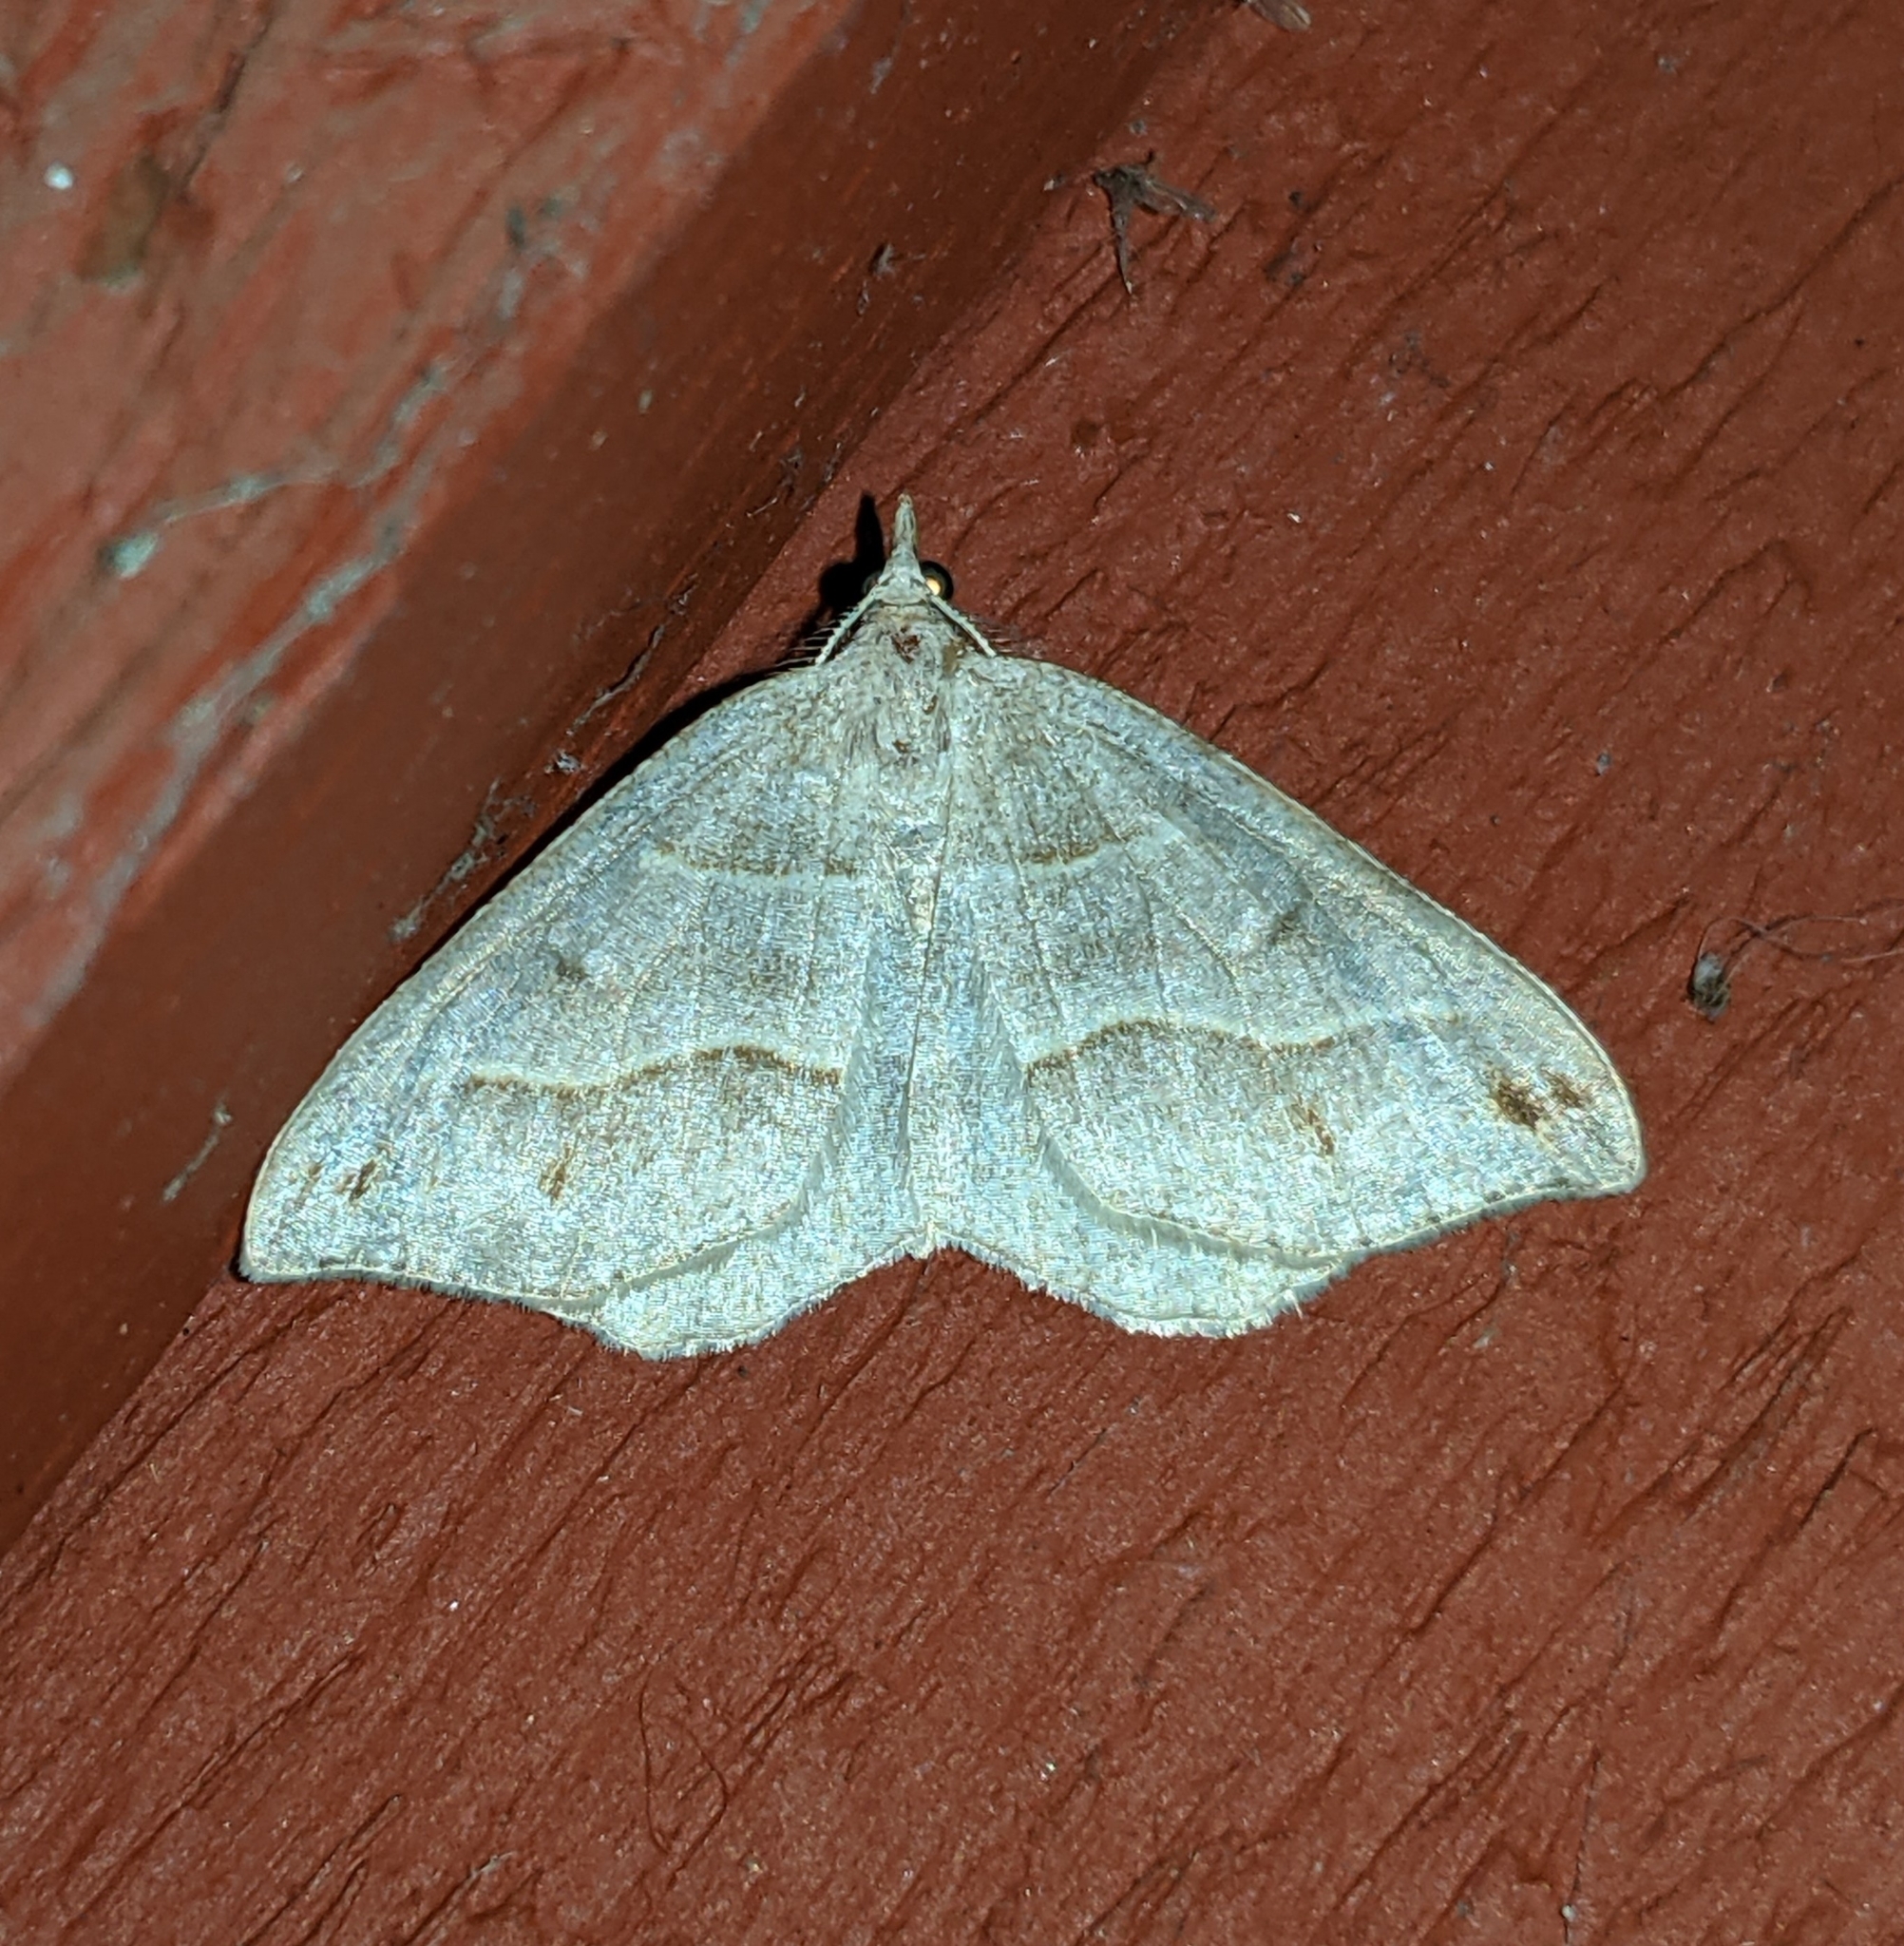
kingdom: Animalia
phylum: Arthropoda
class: Insecta
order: Lepidoptera
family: Geometridae
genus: Macaria
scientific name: Macaria lorquinaria
